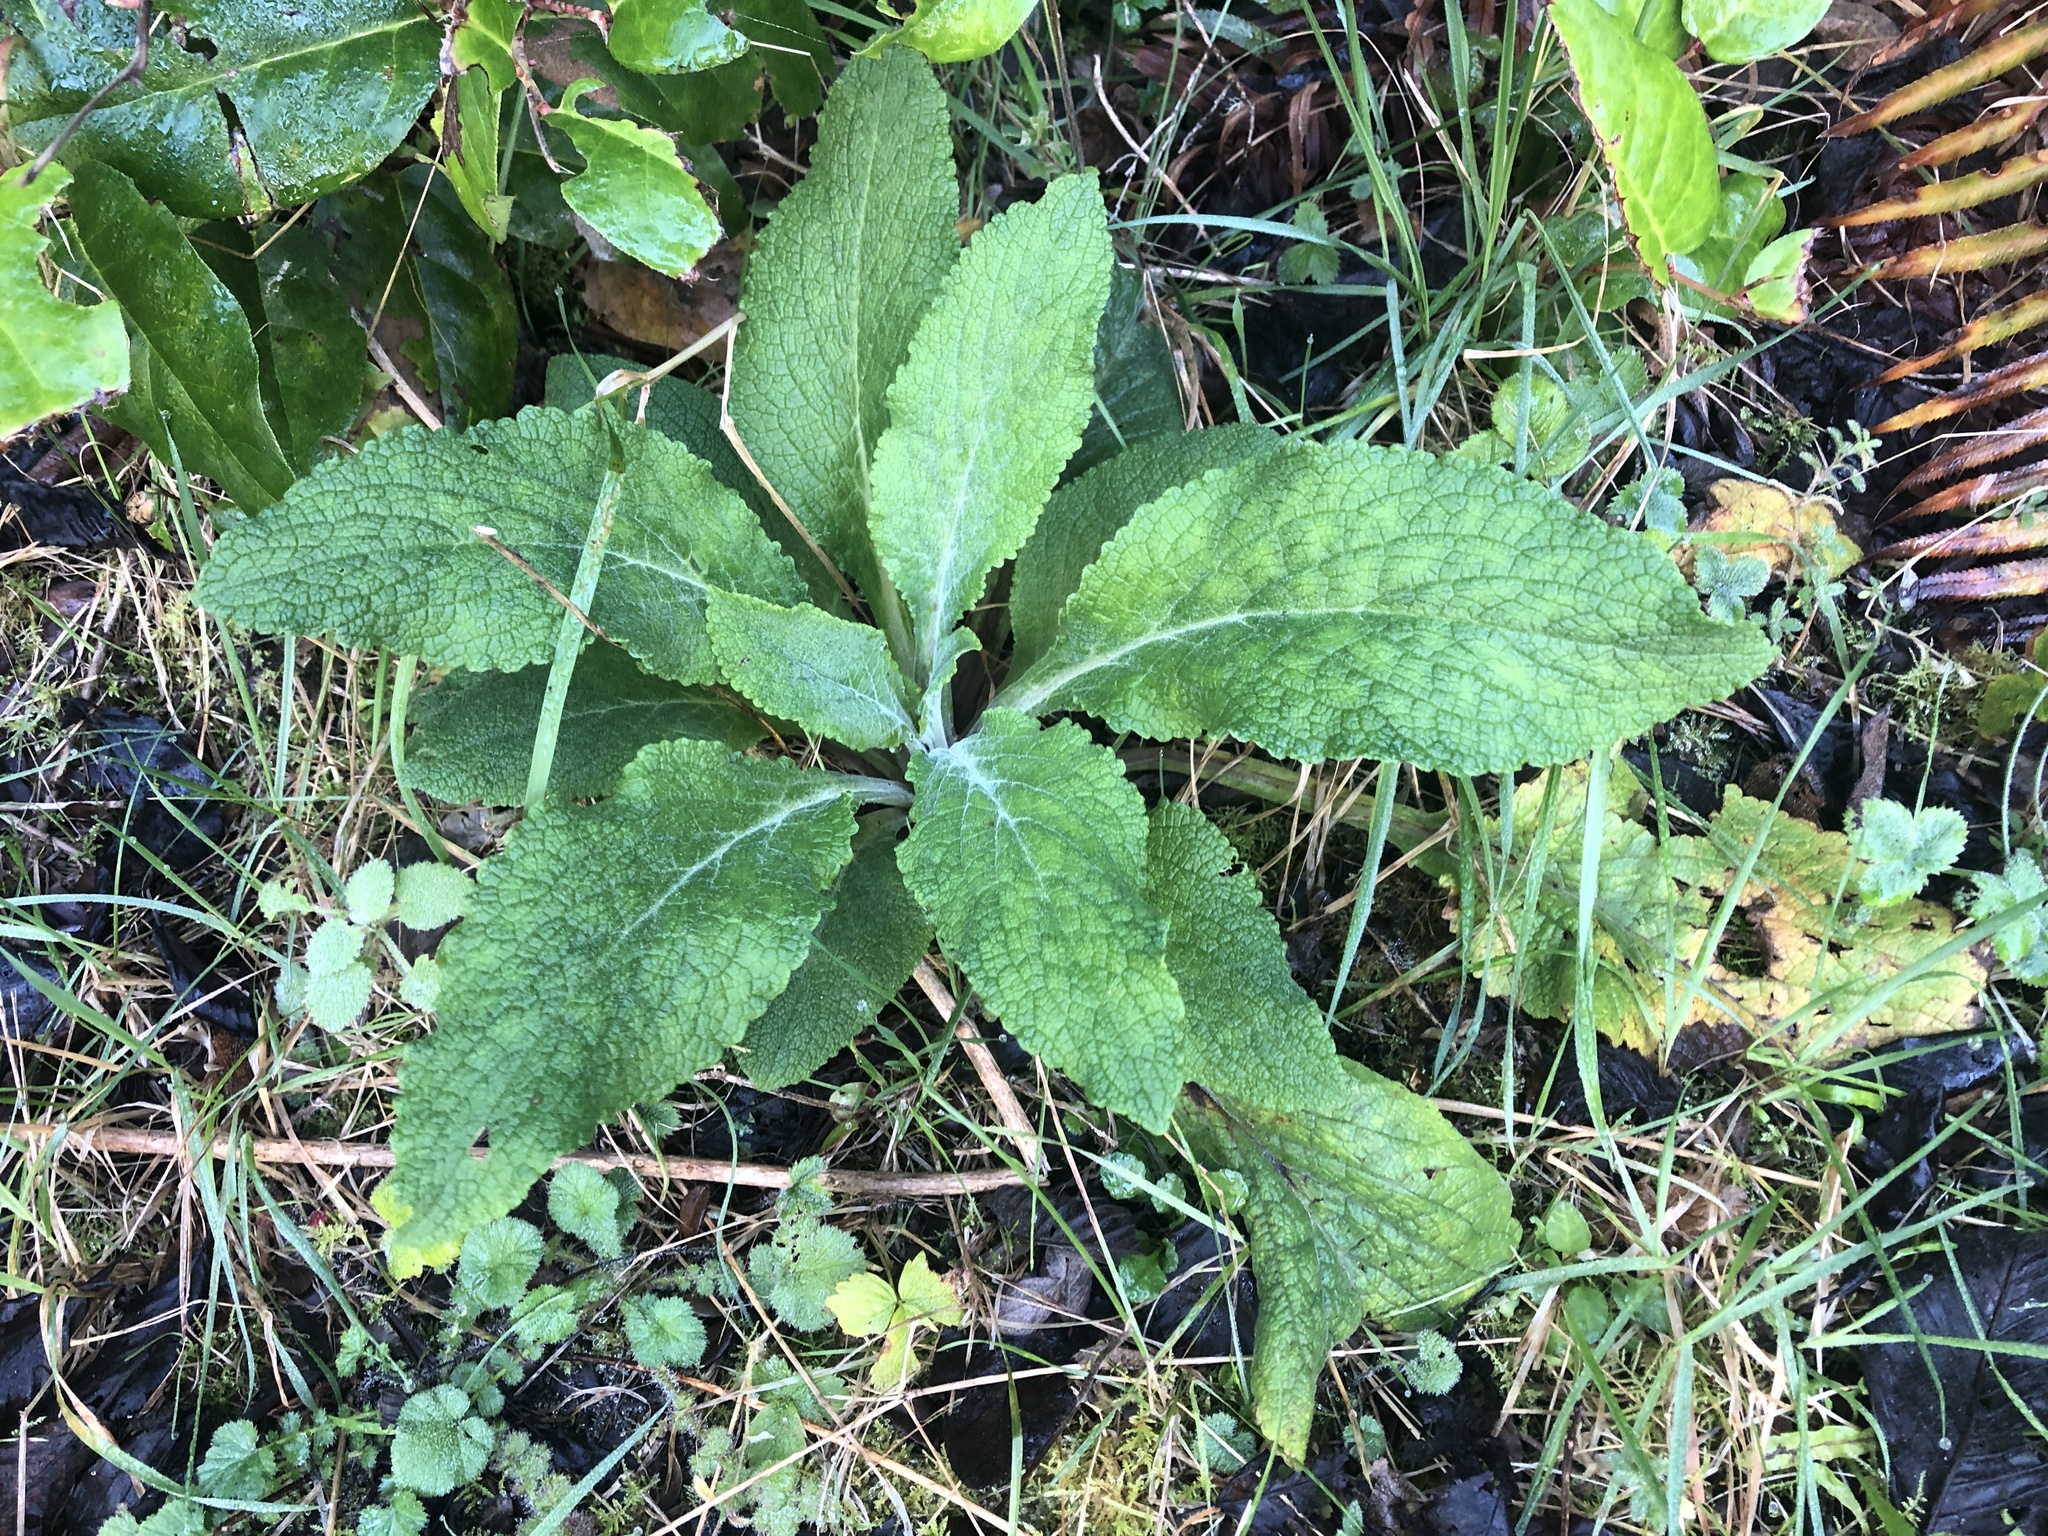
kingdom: Plantae
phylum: Tracheophyta
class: Magnoliopsida
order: Lamiales
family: Plantaginaceae
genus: Digitalis
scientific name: Digitalis purpurea
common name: Foxglove
